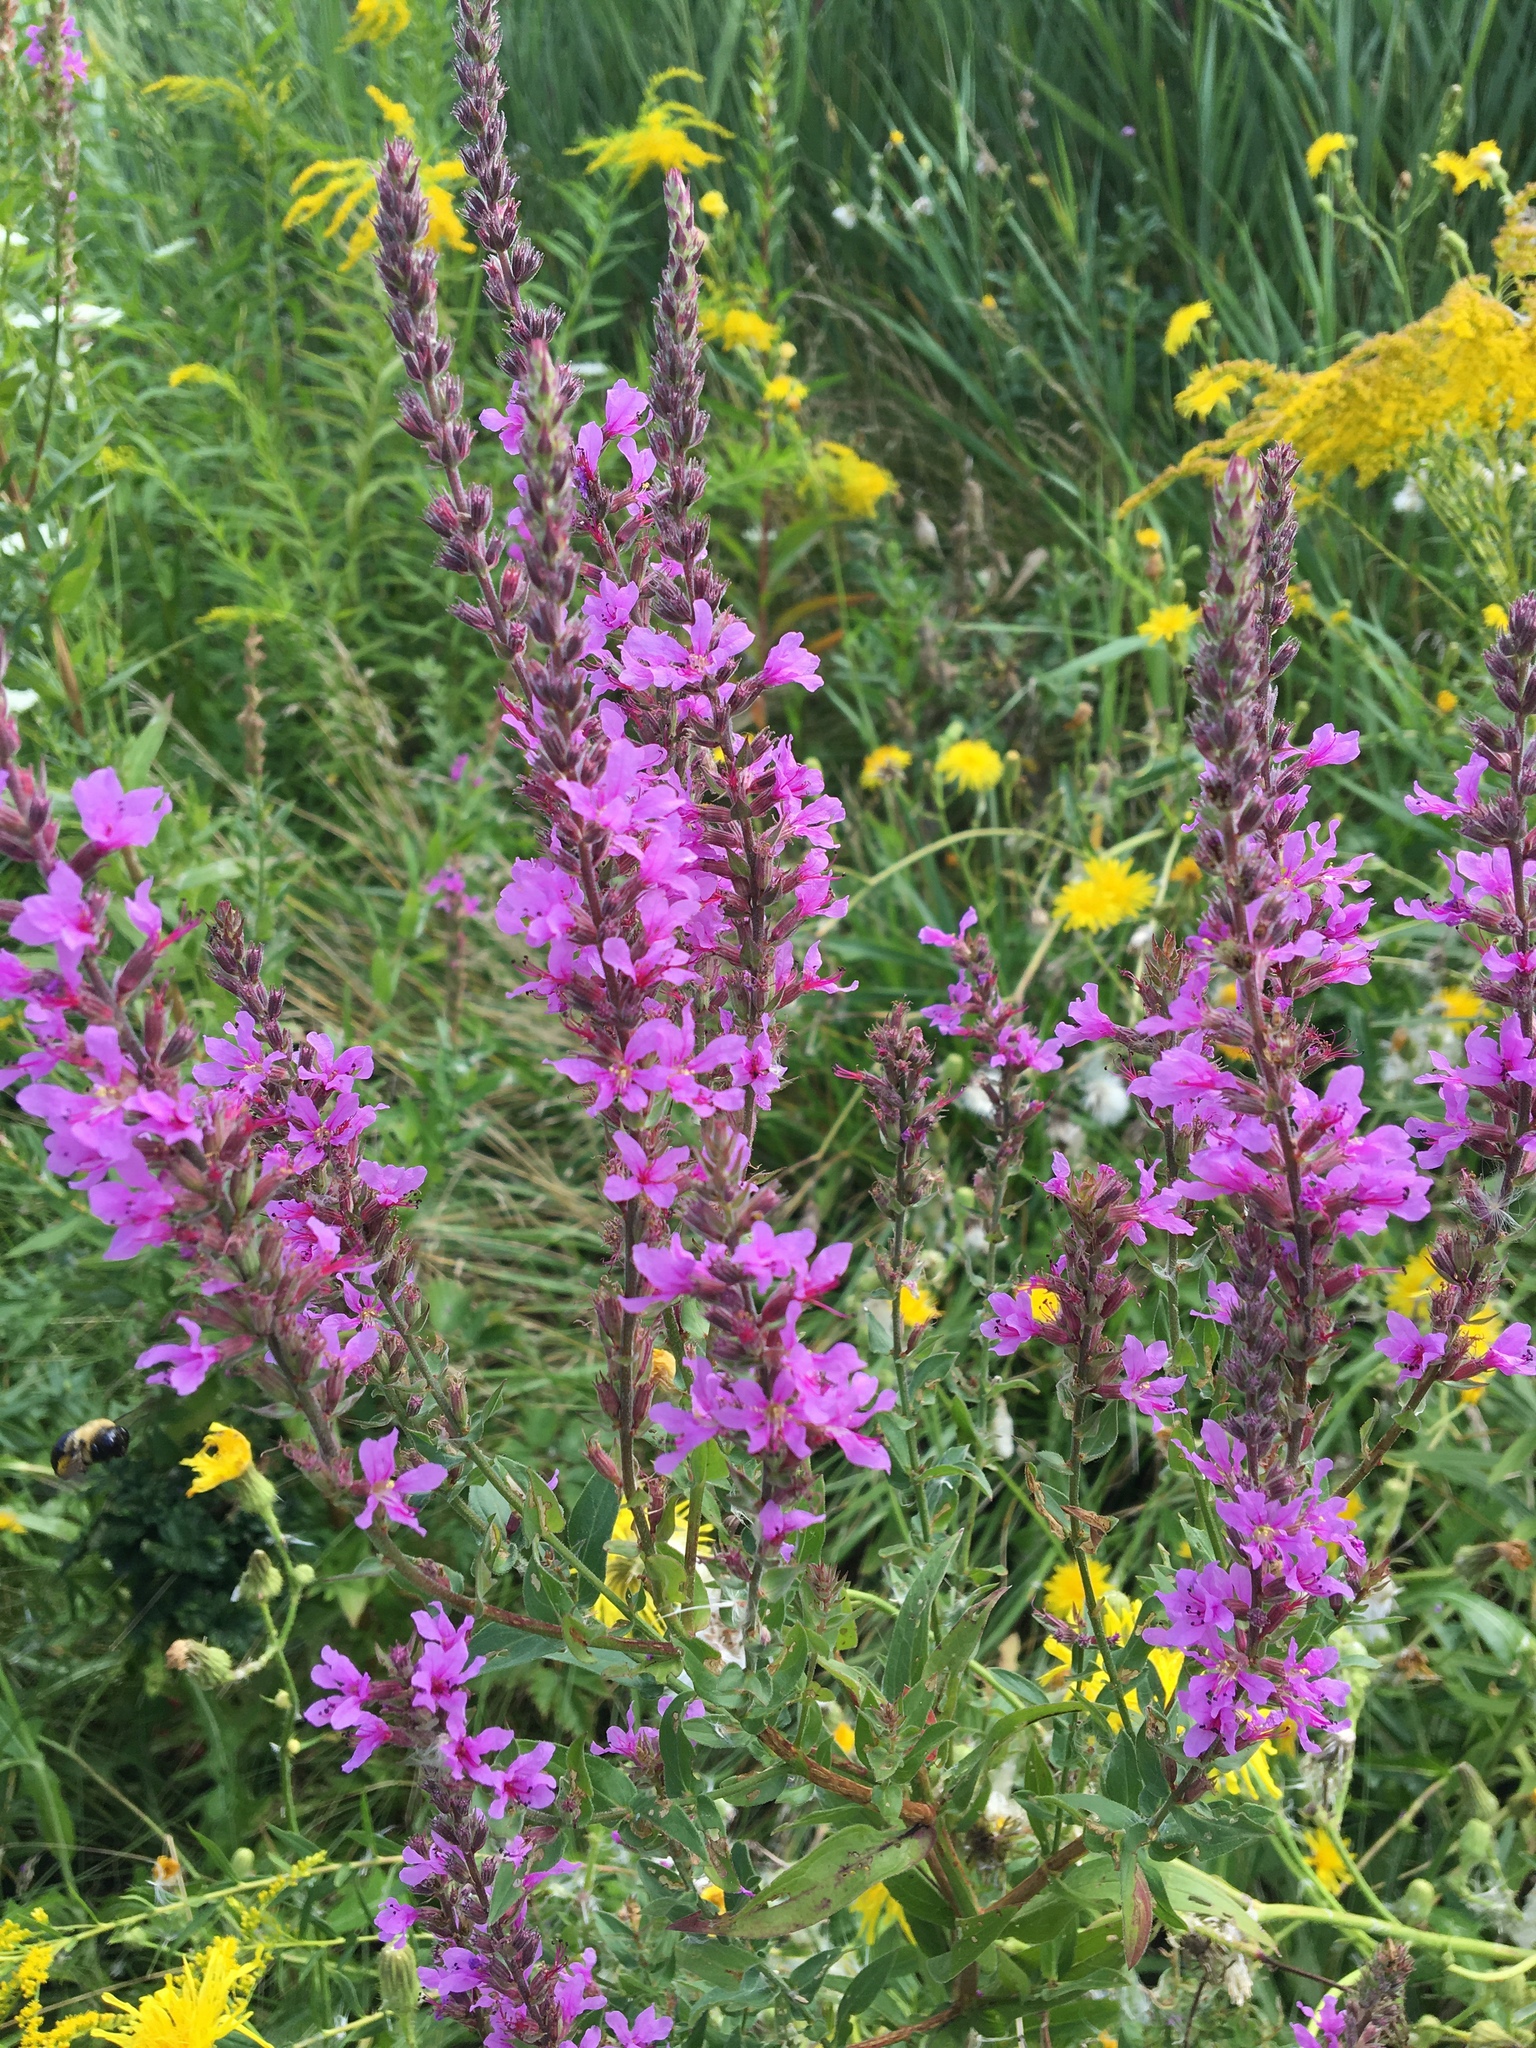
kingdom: Plantae
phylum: Tracheophyta
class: Magnoliopsida
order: Myrtales
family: Lythraceae
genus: Lythrum
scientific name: Lythrum salicaria
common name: Purple loosestrife
